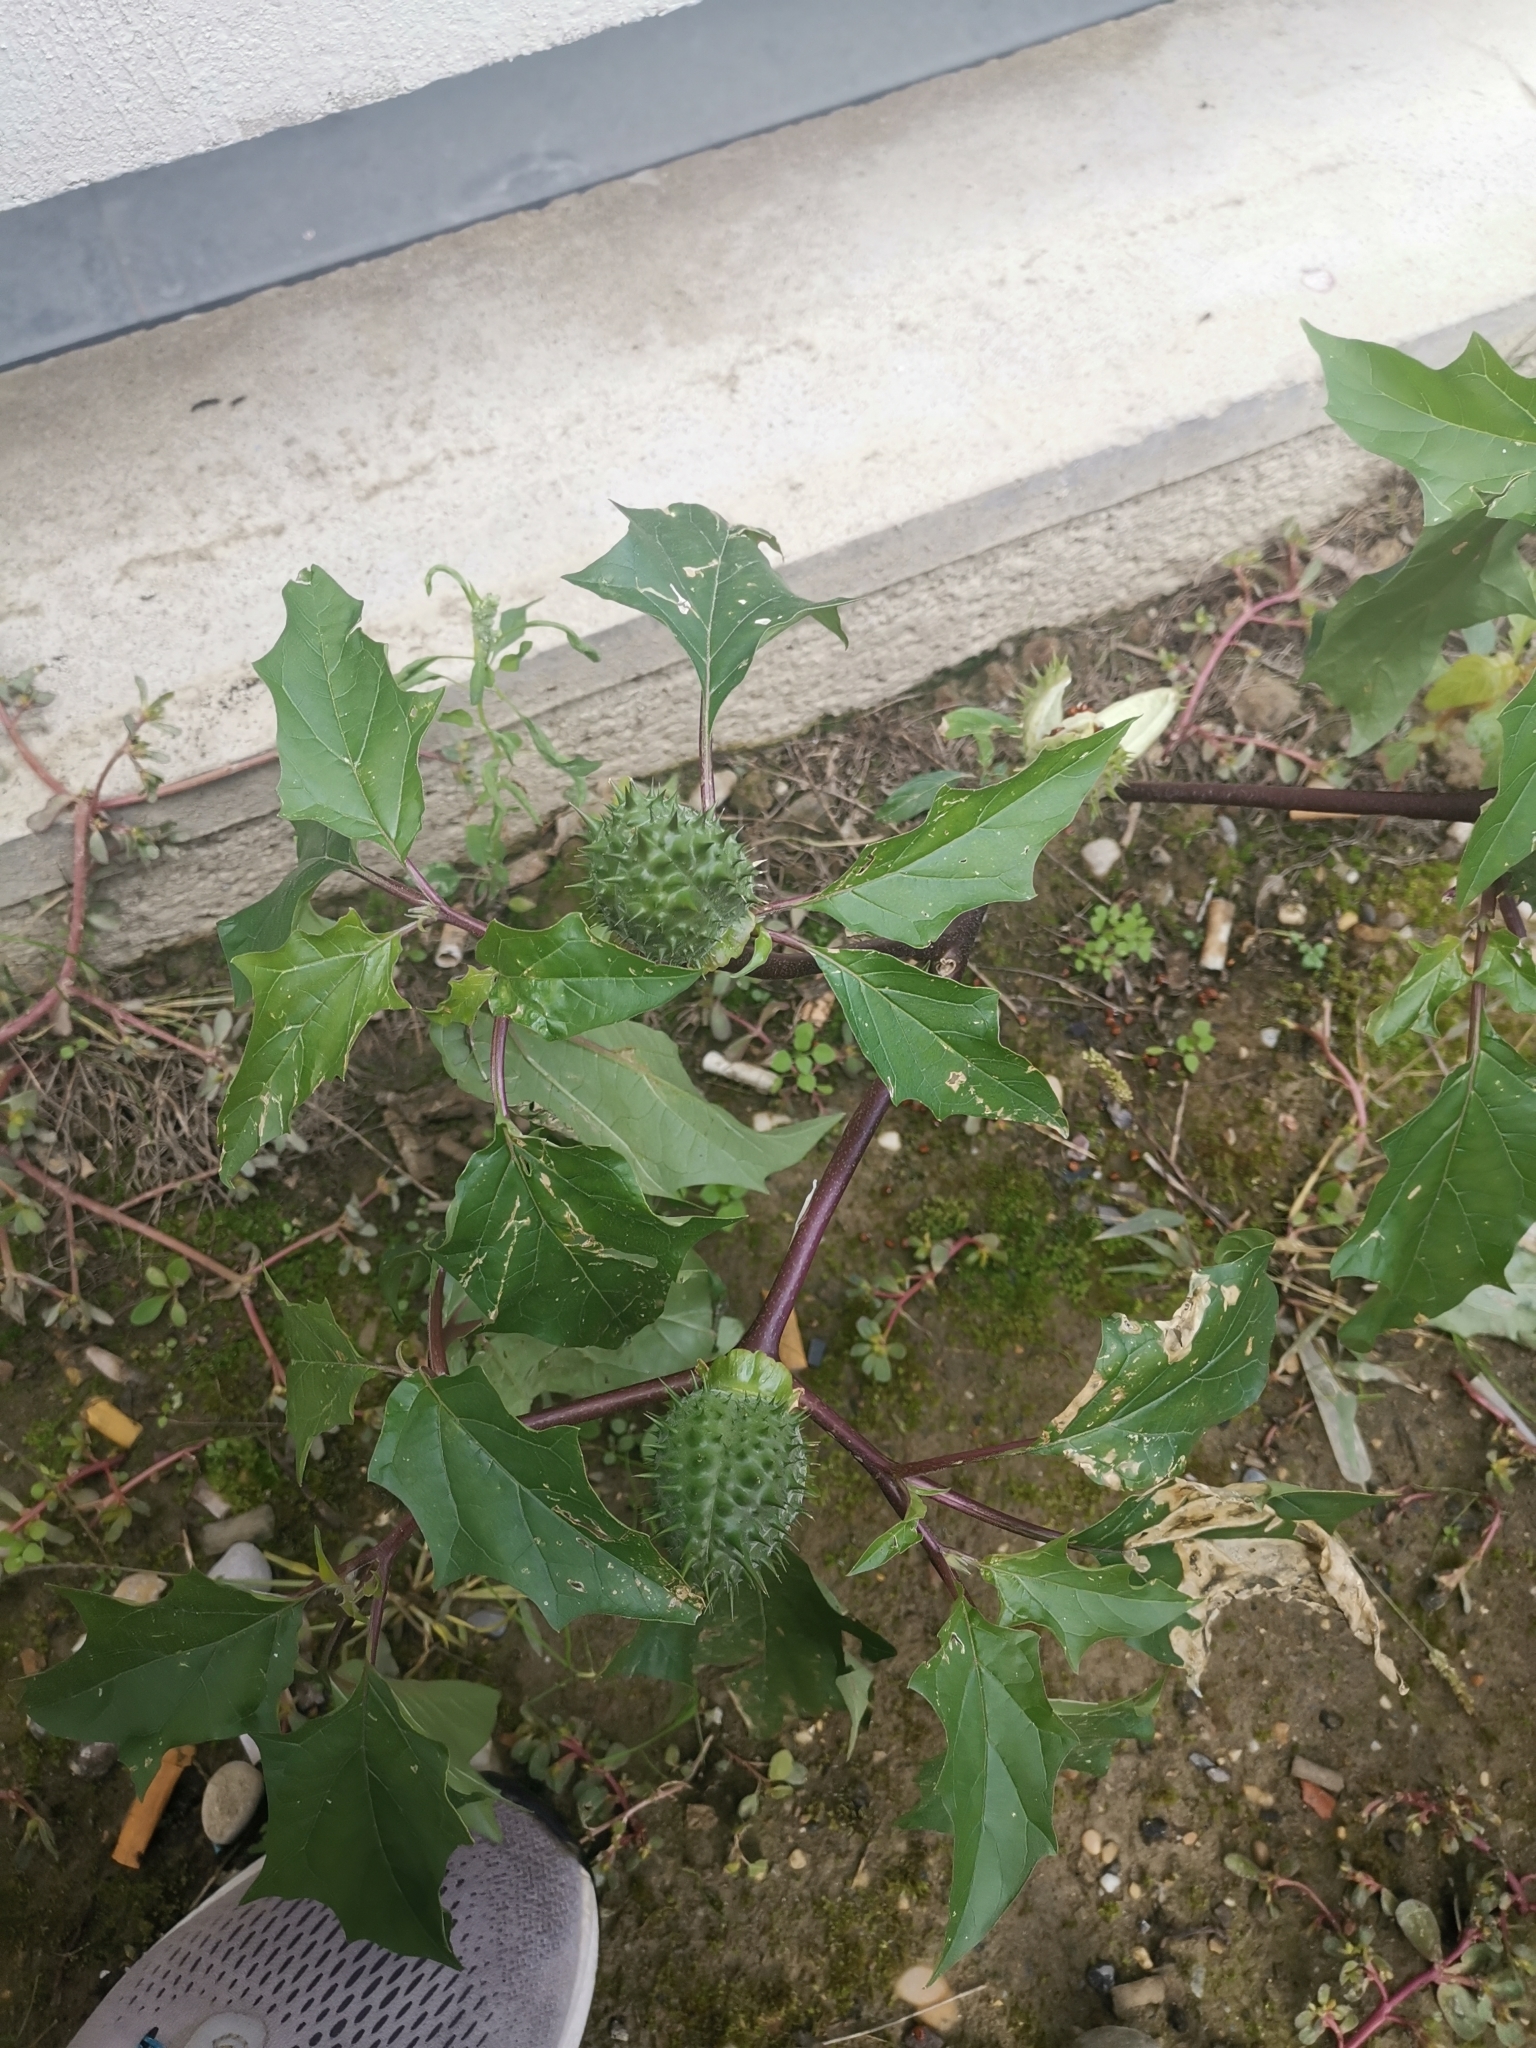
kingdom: Plantae
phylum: Tracheophyta
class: Magnoliopsida
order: Solanales
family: Solanaceae
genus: Datura
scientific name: Datura stramonium
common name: Thorn-apple
